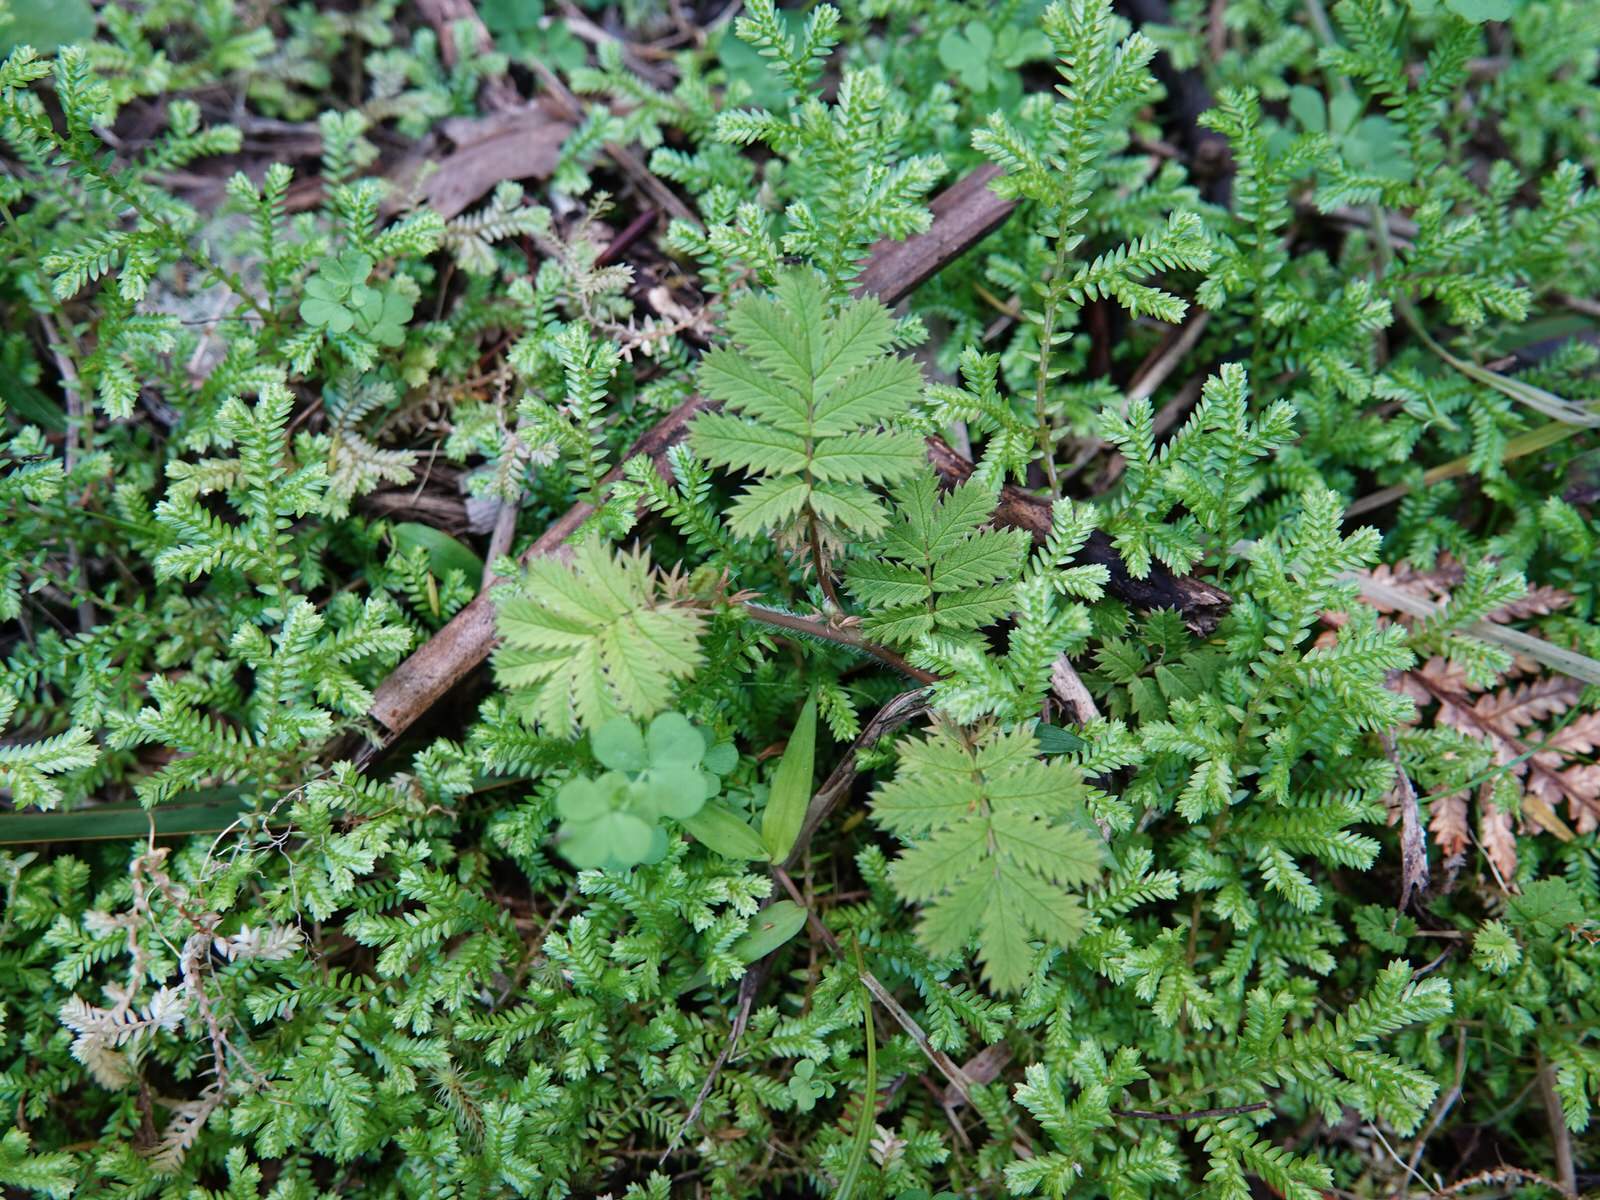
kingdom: Plantae
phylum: Tracheophyta
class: Magnoliopsida
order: Rosales
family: Rosaceae
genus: Acaena
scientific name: Acaena anserinifolia
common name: Bronze pirri-pirri-bur
